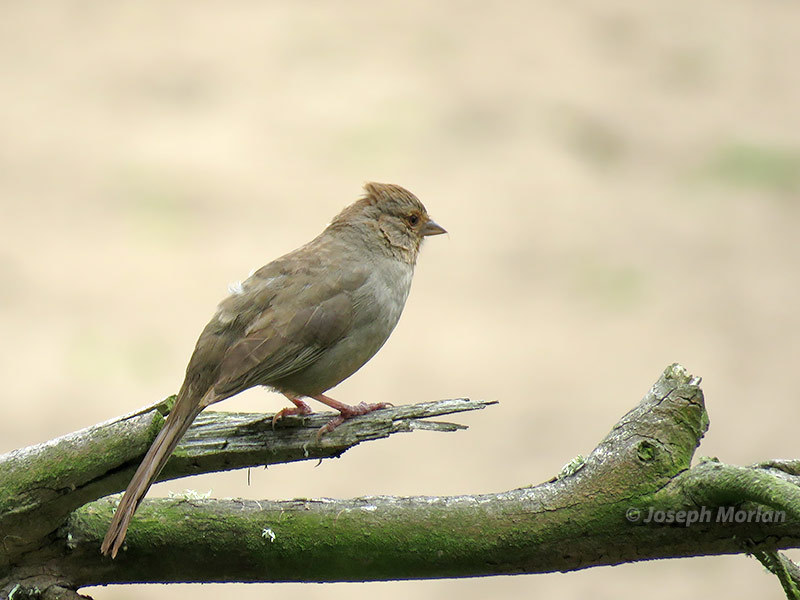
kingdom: Animalia
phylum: Chordata
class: Aves
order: Passeriformes
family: Passerellidae
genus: Melozone
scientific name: Melozone crissalis
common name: California towhee
